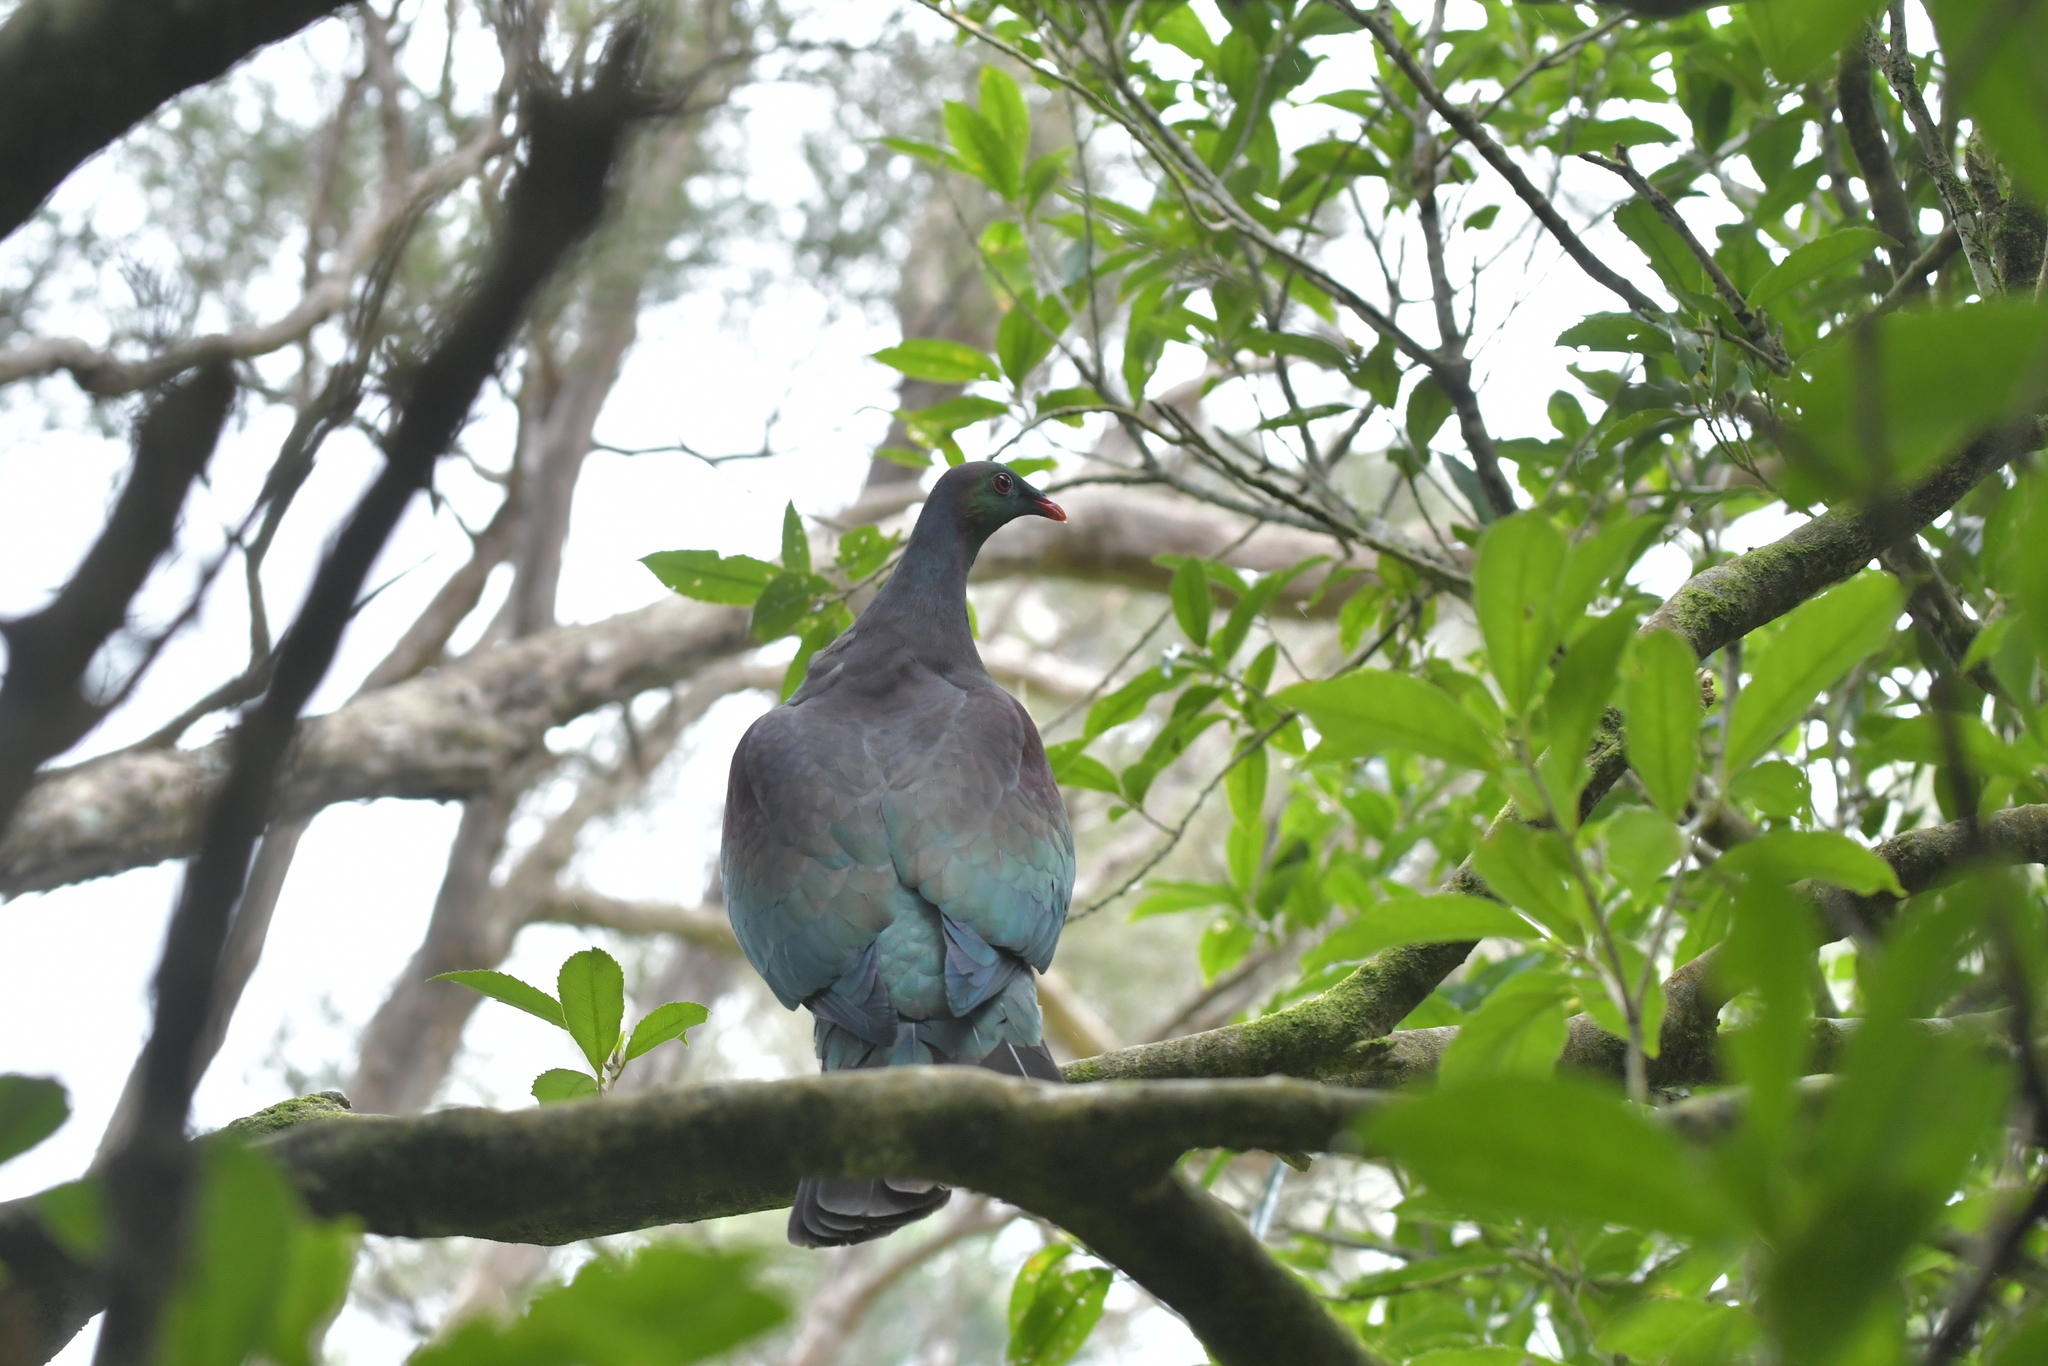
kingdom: Animalia
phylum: Chordata
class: Aves
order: Columbiformes
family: Columbidae
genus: Hemiphaga
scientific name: Hemiphaga novaeseelandiae
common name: New zealand pigeon
